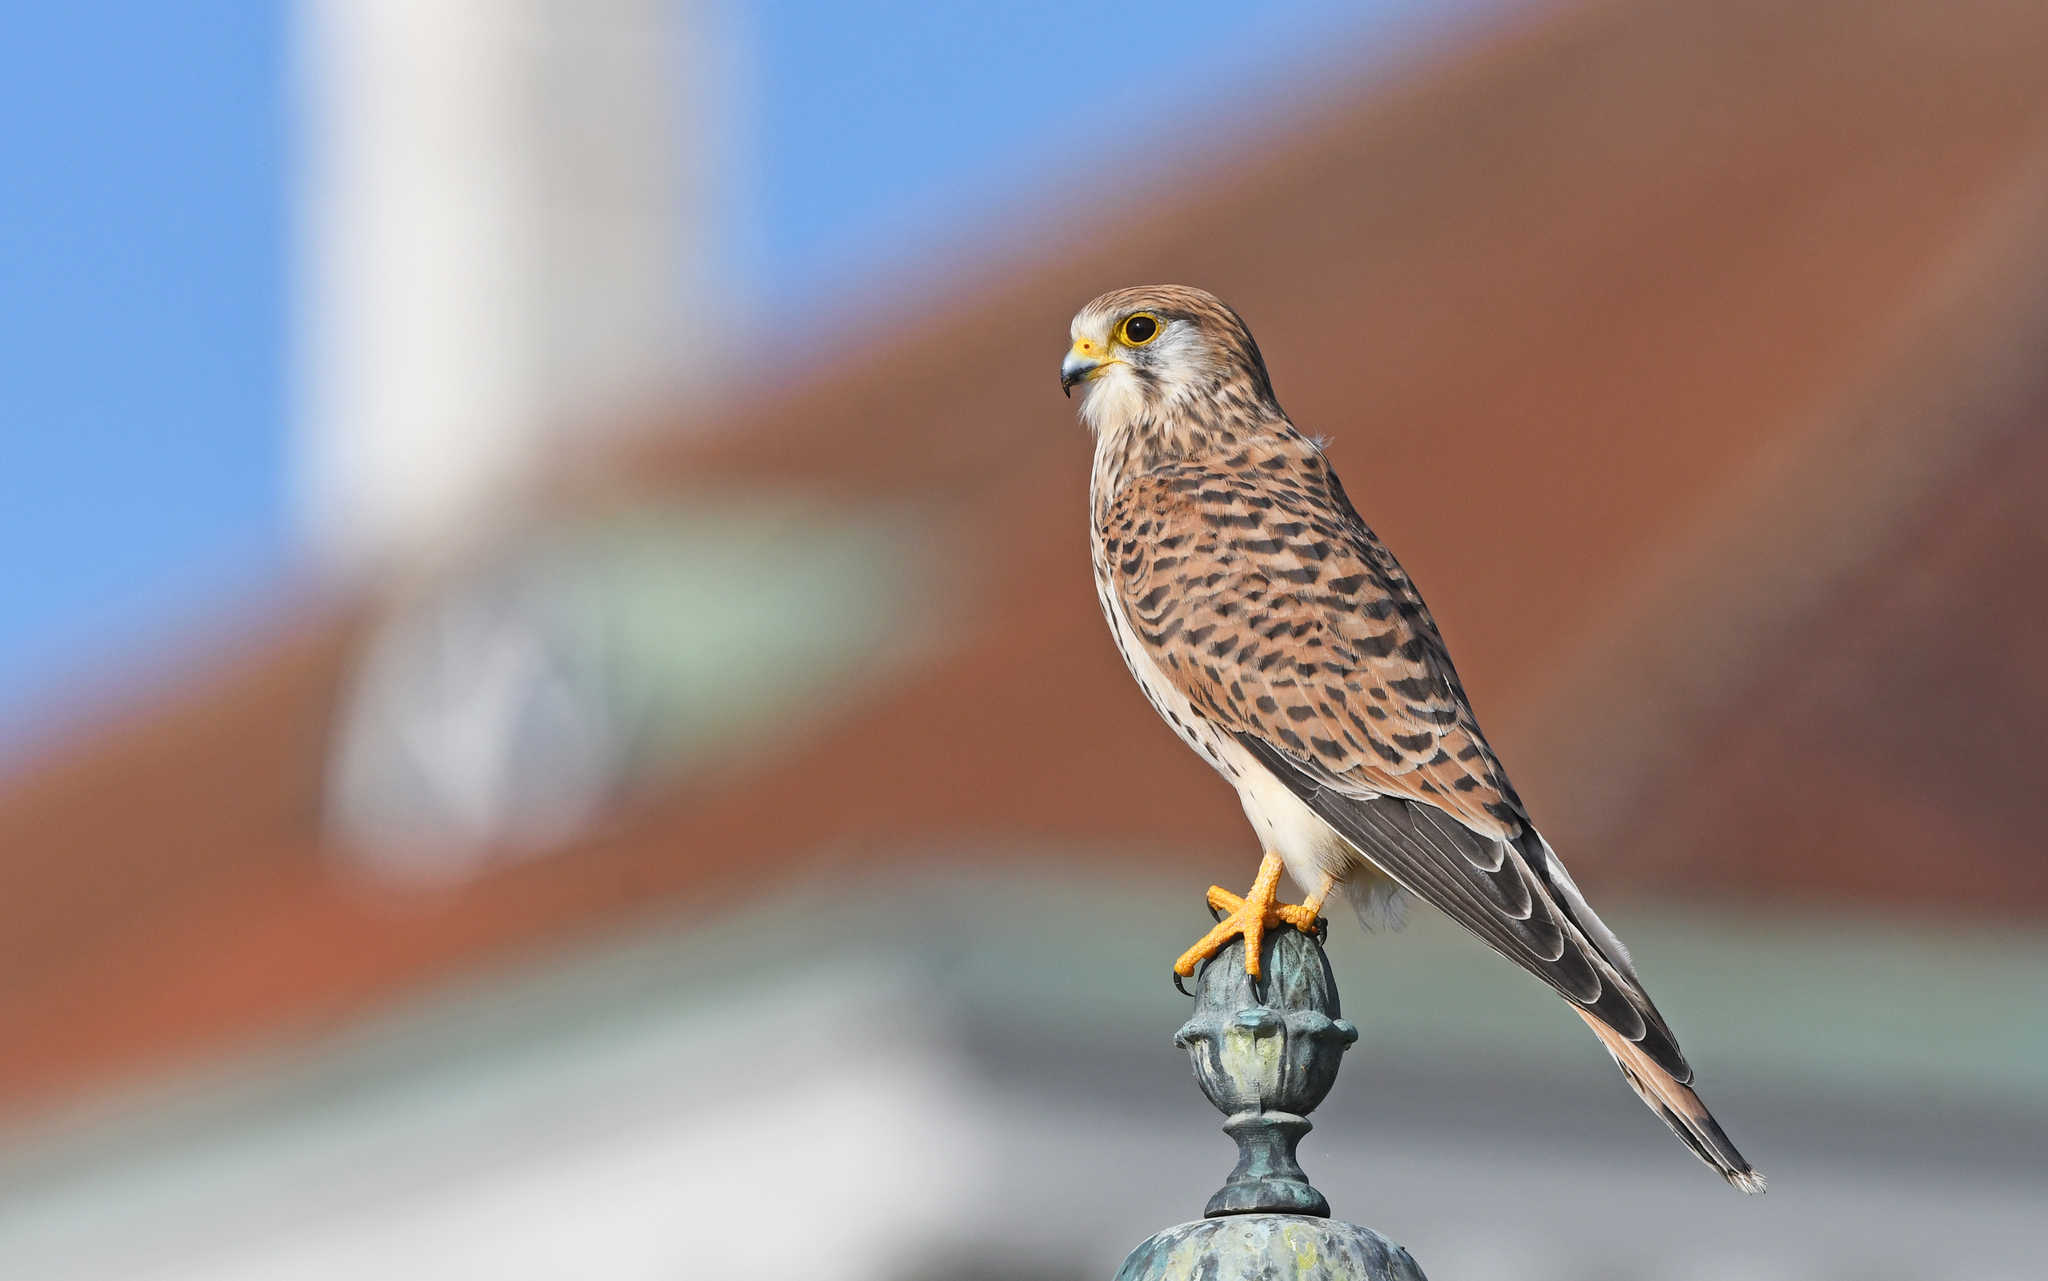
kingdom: Animalia
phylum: Chordata
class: Aves
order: Falconiformes
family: Falconidae
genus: Falco
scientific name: Falco tinnunculus
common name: Common kestrel
